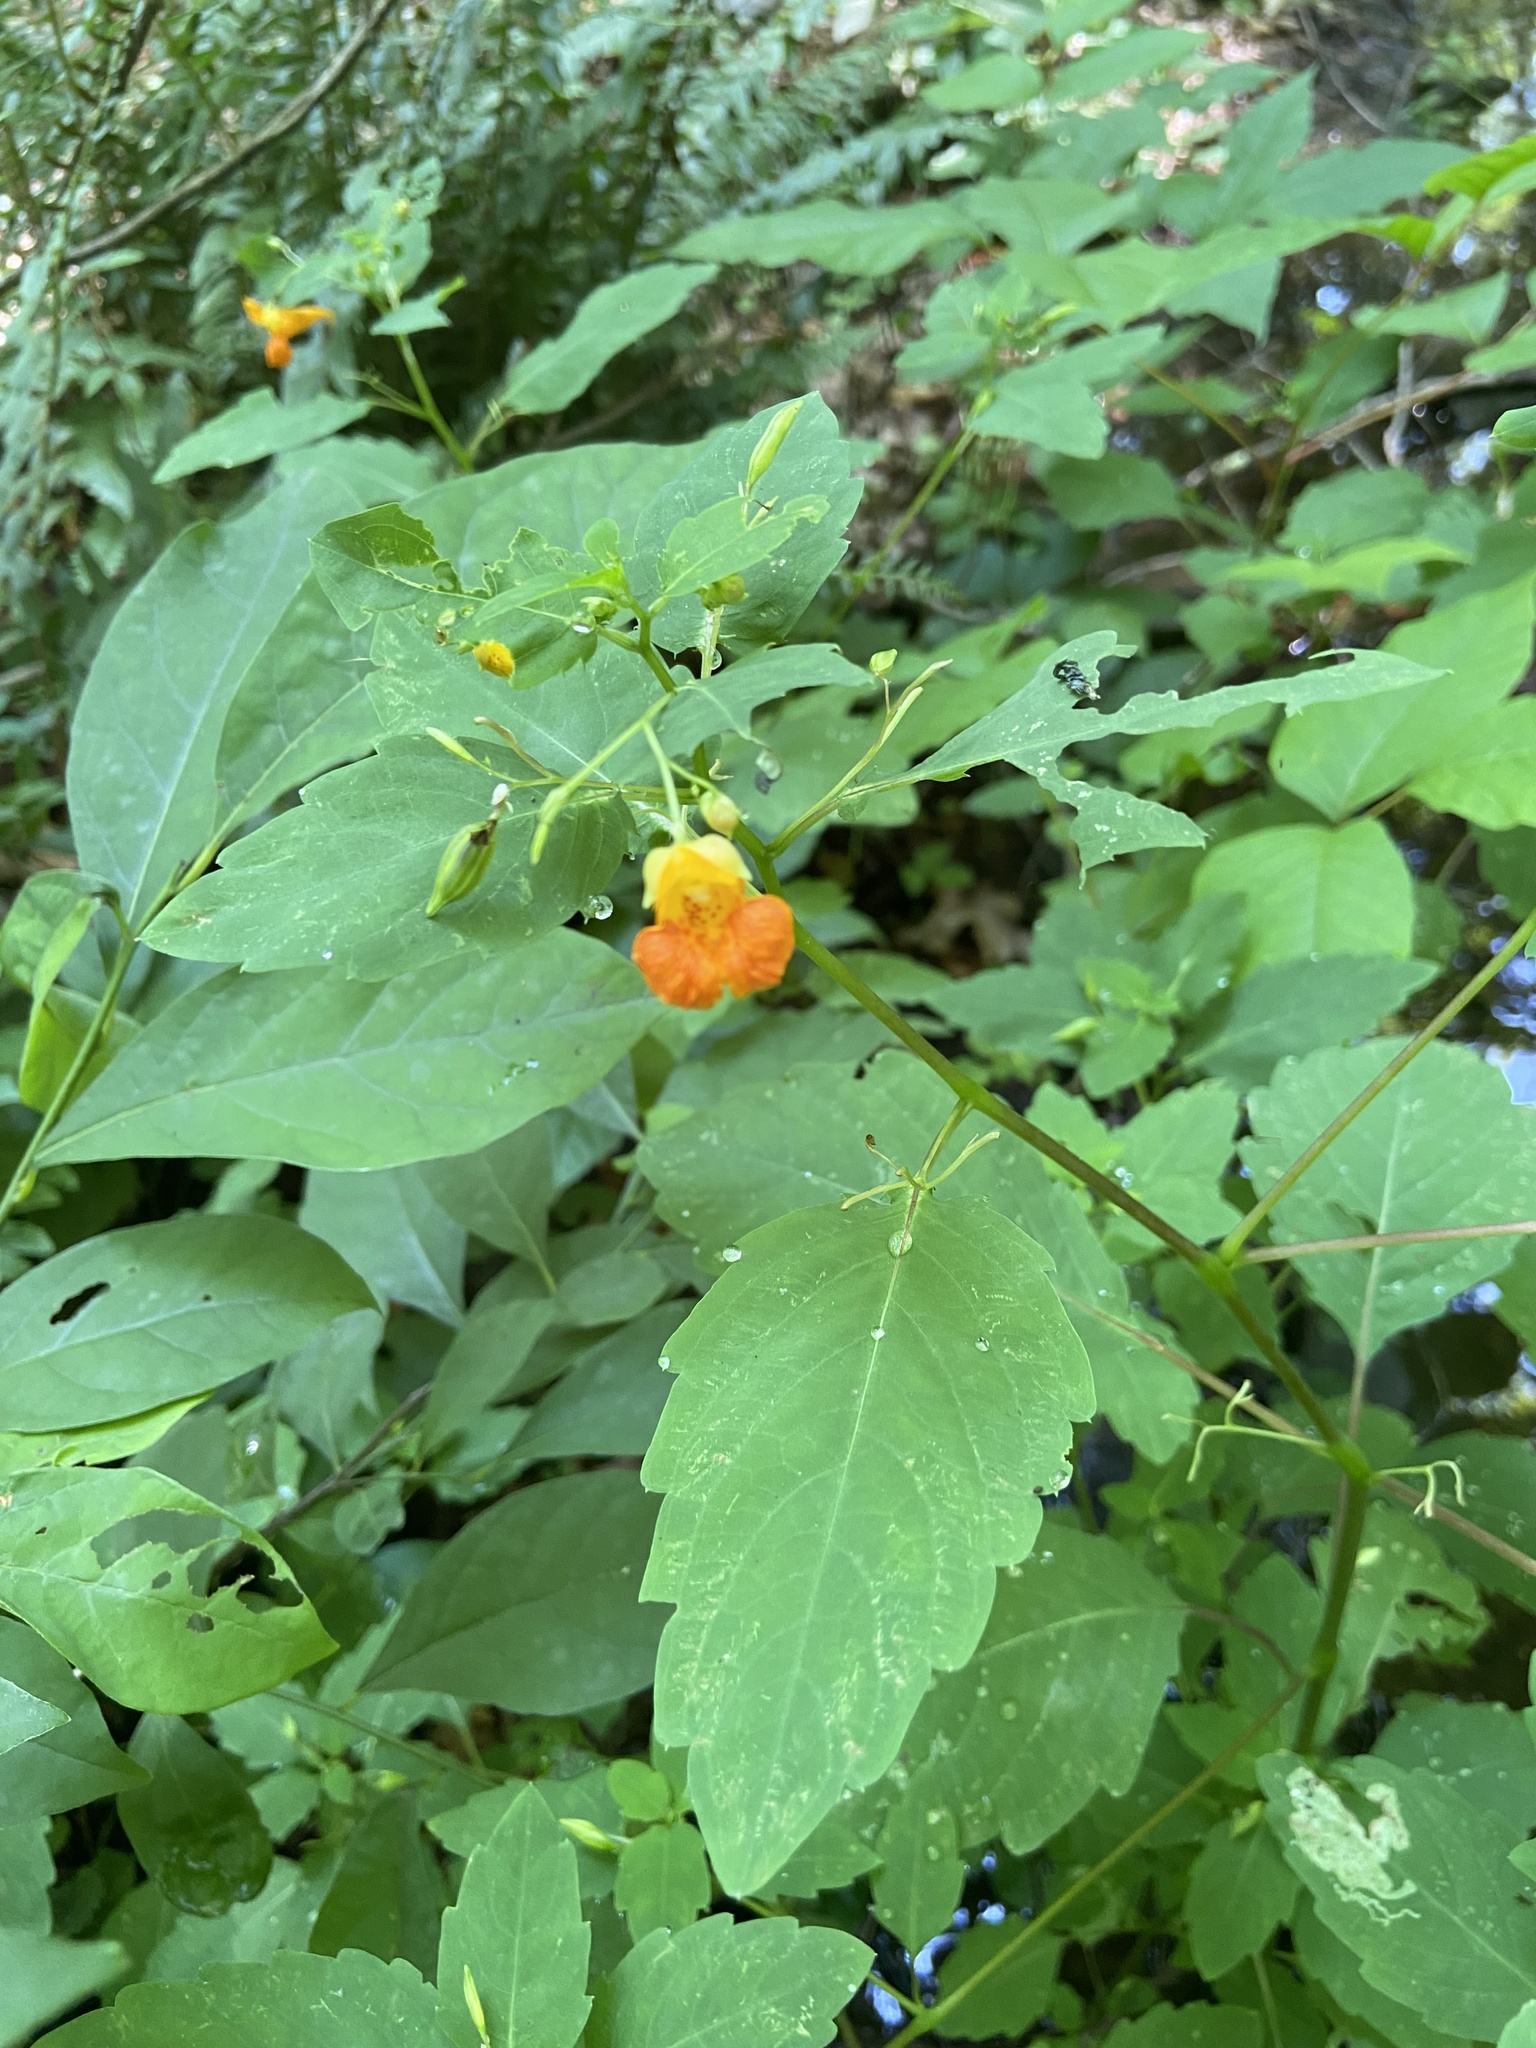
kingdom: Plantae
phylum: Tracheophyta
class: Magnoliopsida
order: Ericales
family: Balsaminaceae
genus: Impatiens
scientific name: Impatiens capensis
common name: Orange balsam
